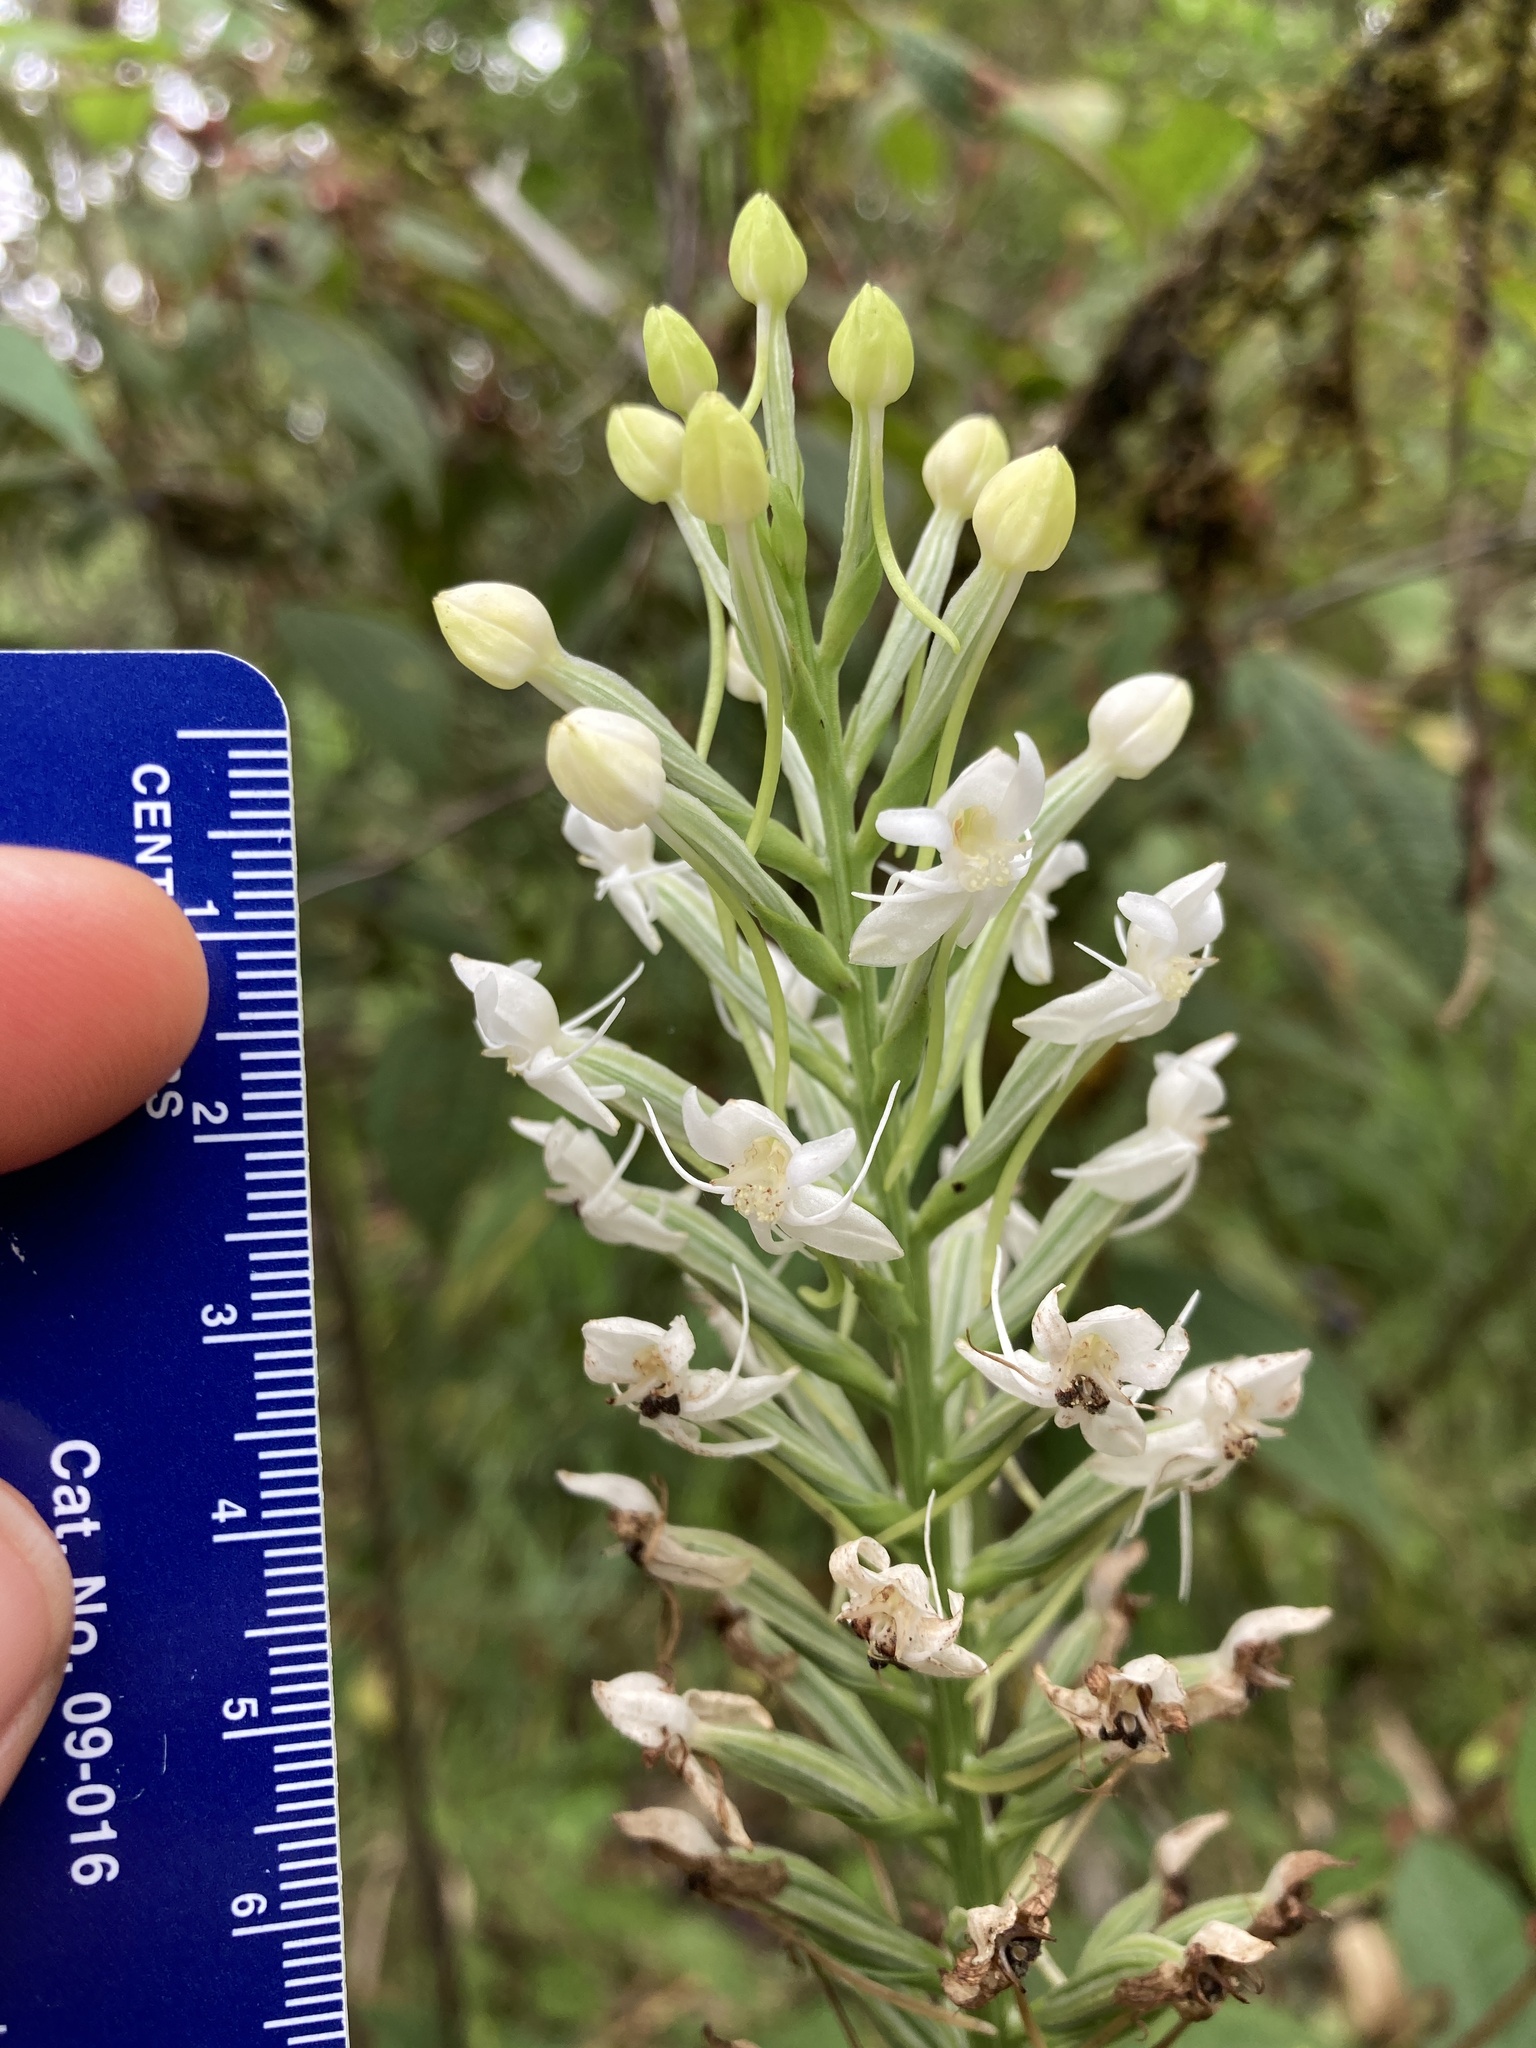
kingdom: Plantae
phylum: Tracheophyta
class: Liliopsida
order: Asparagales
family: Orchidaceae
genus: Habenaria
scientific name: Habenaria monorrhiza
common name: Tropical bog orchid
